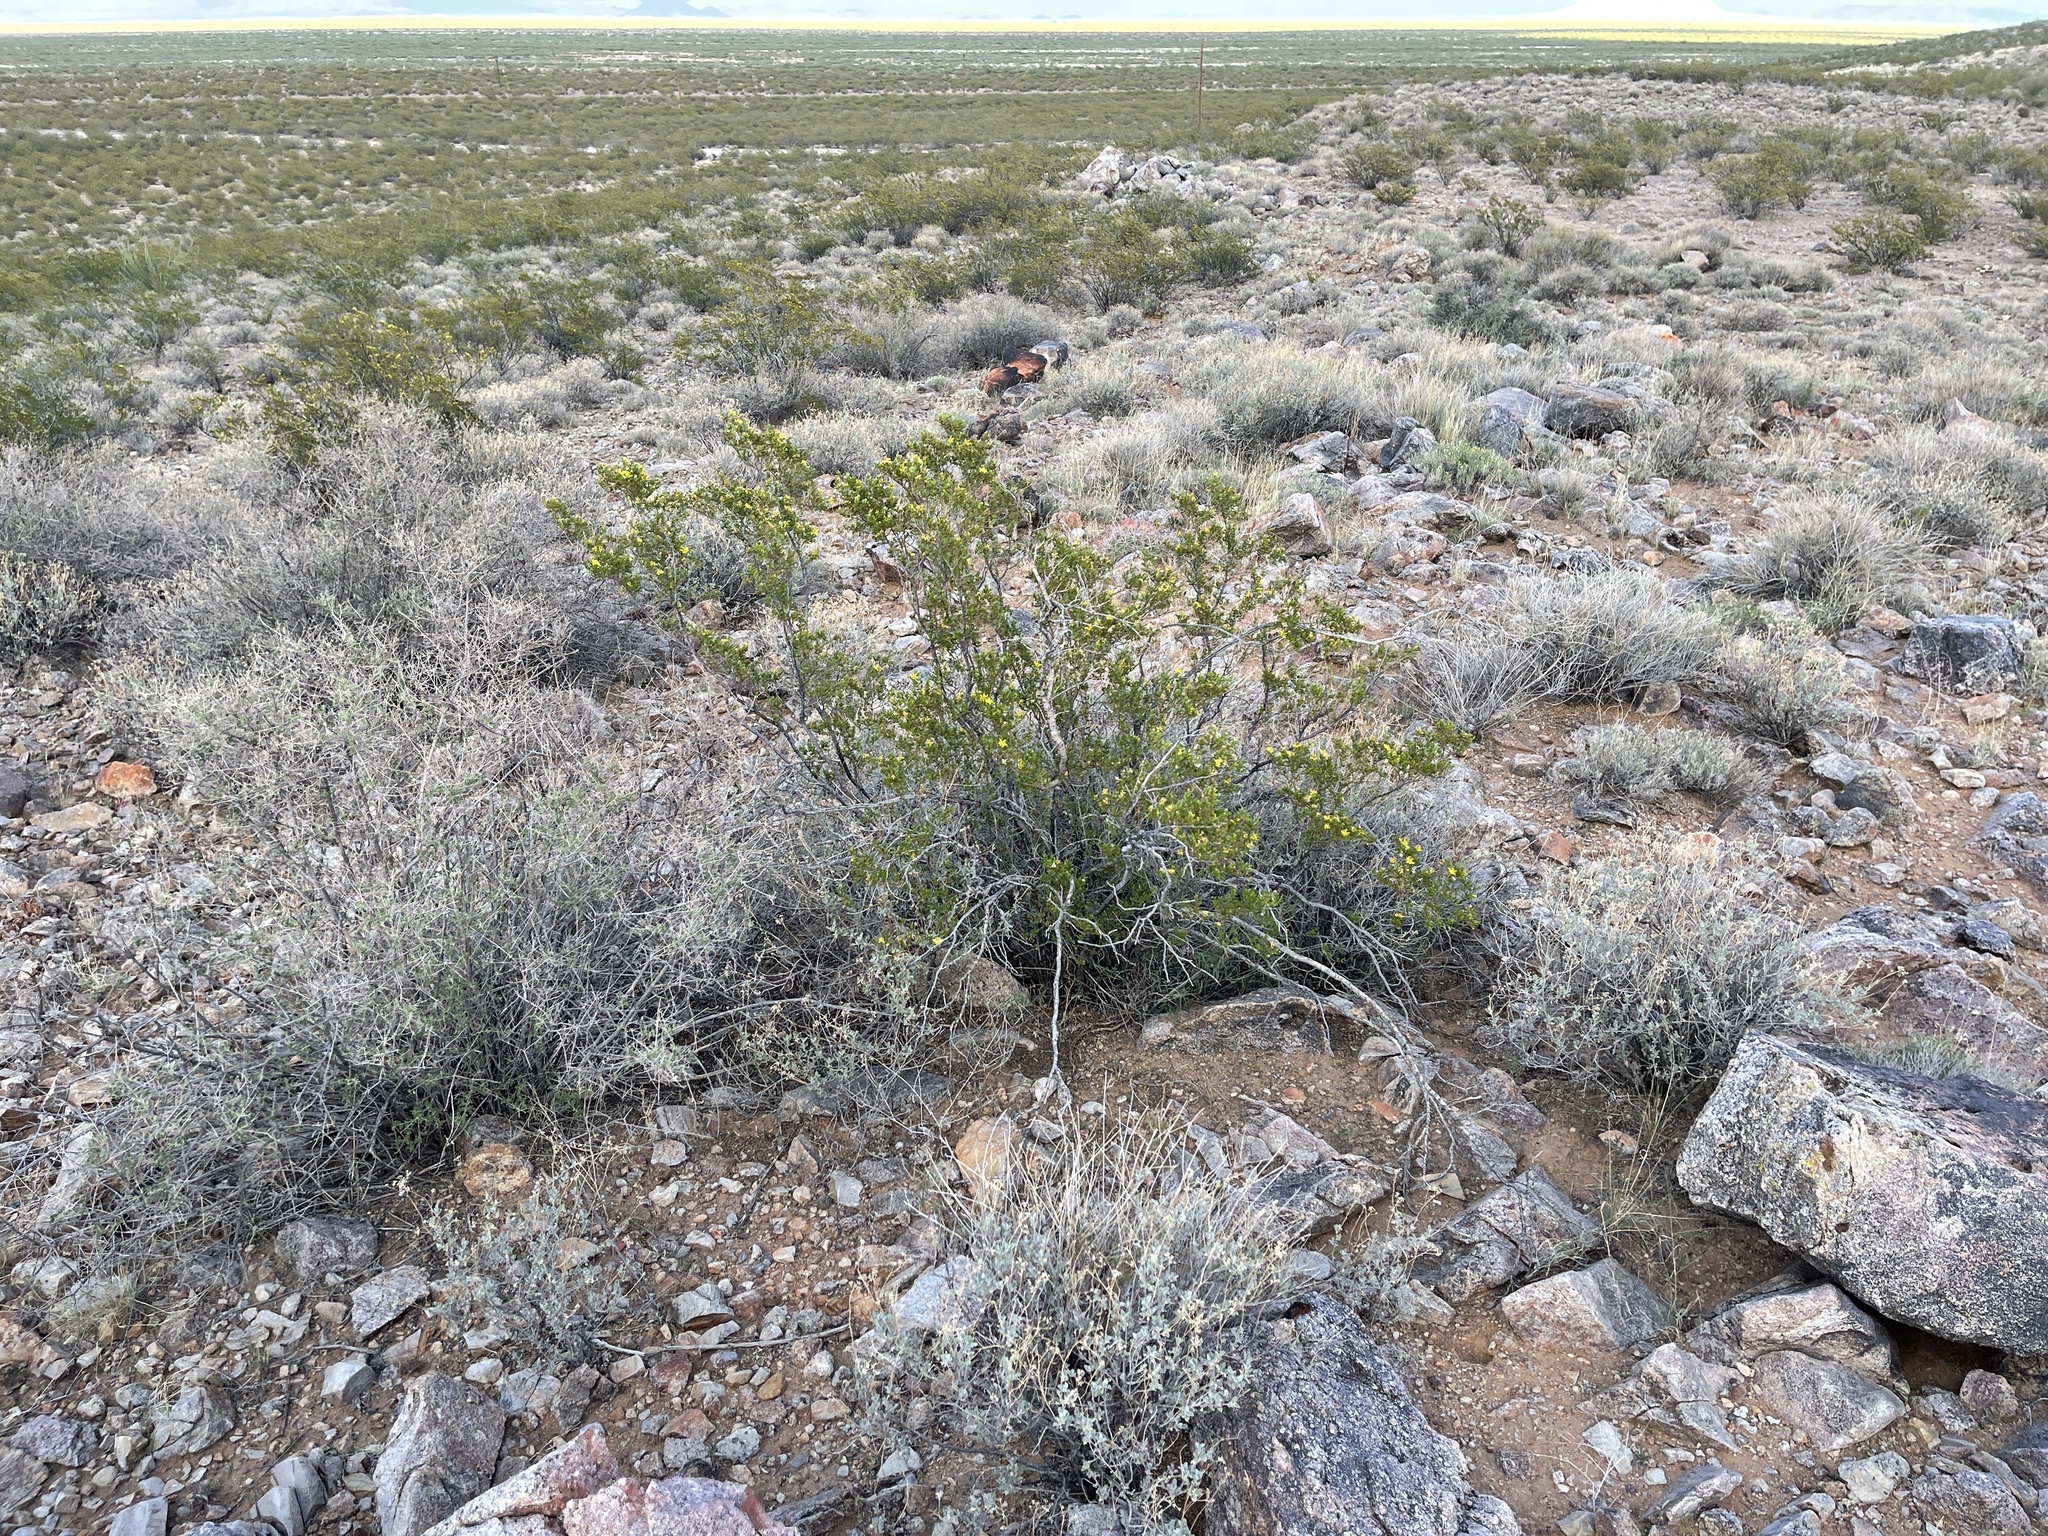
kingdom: Plantae
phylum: Tracheophyta
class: Magnoliopsida
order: Zygophyllales
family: Zygophyllaceae
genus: Larrea
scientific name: Larrea tridentata
